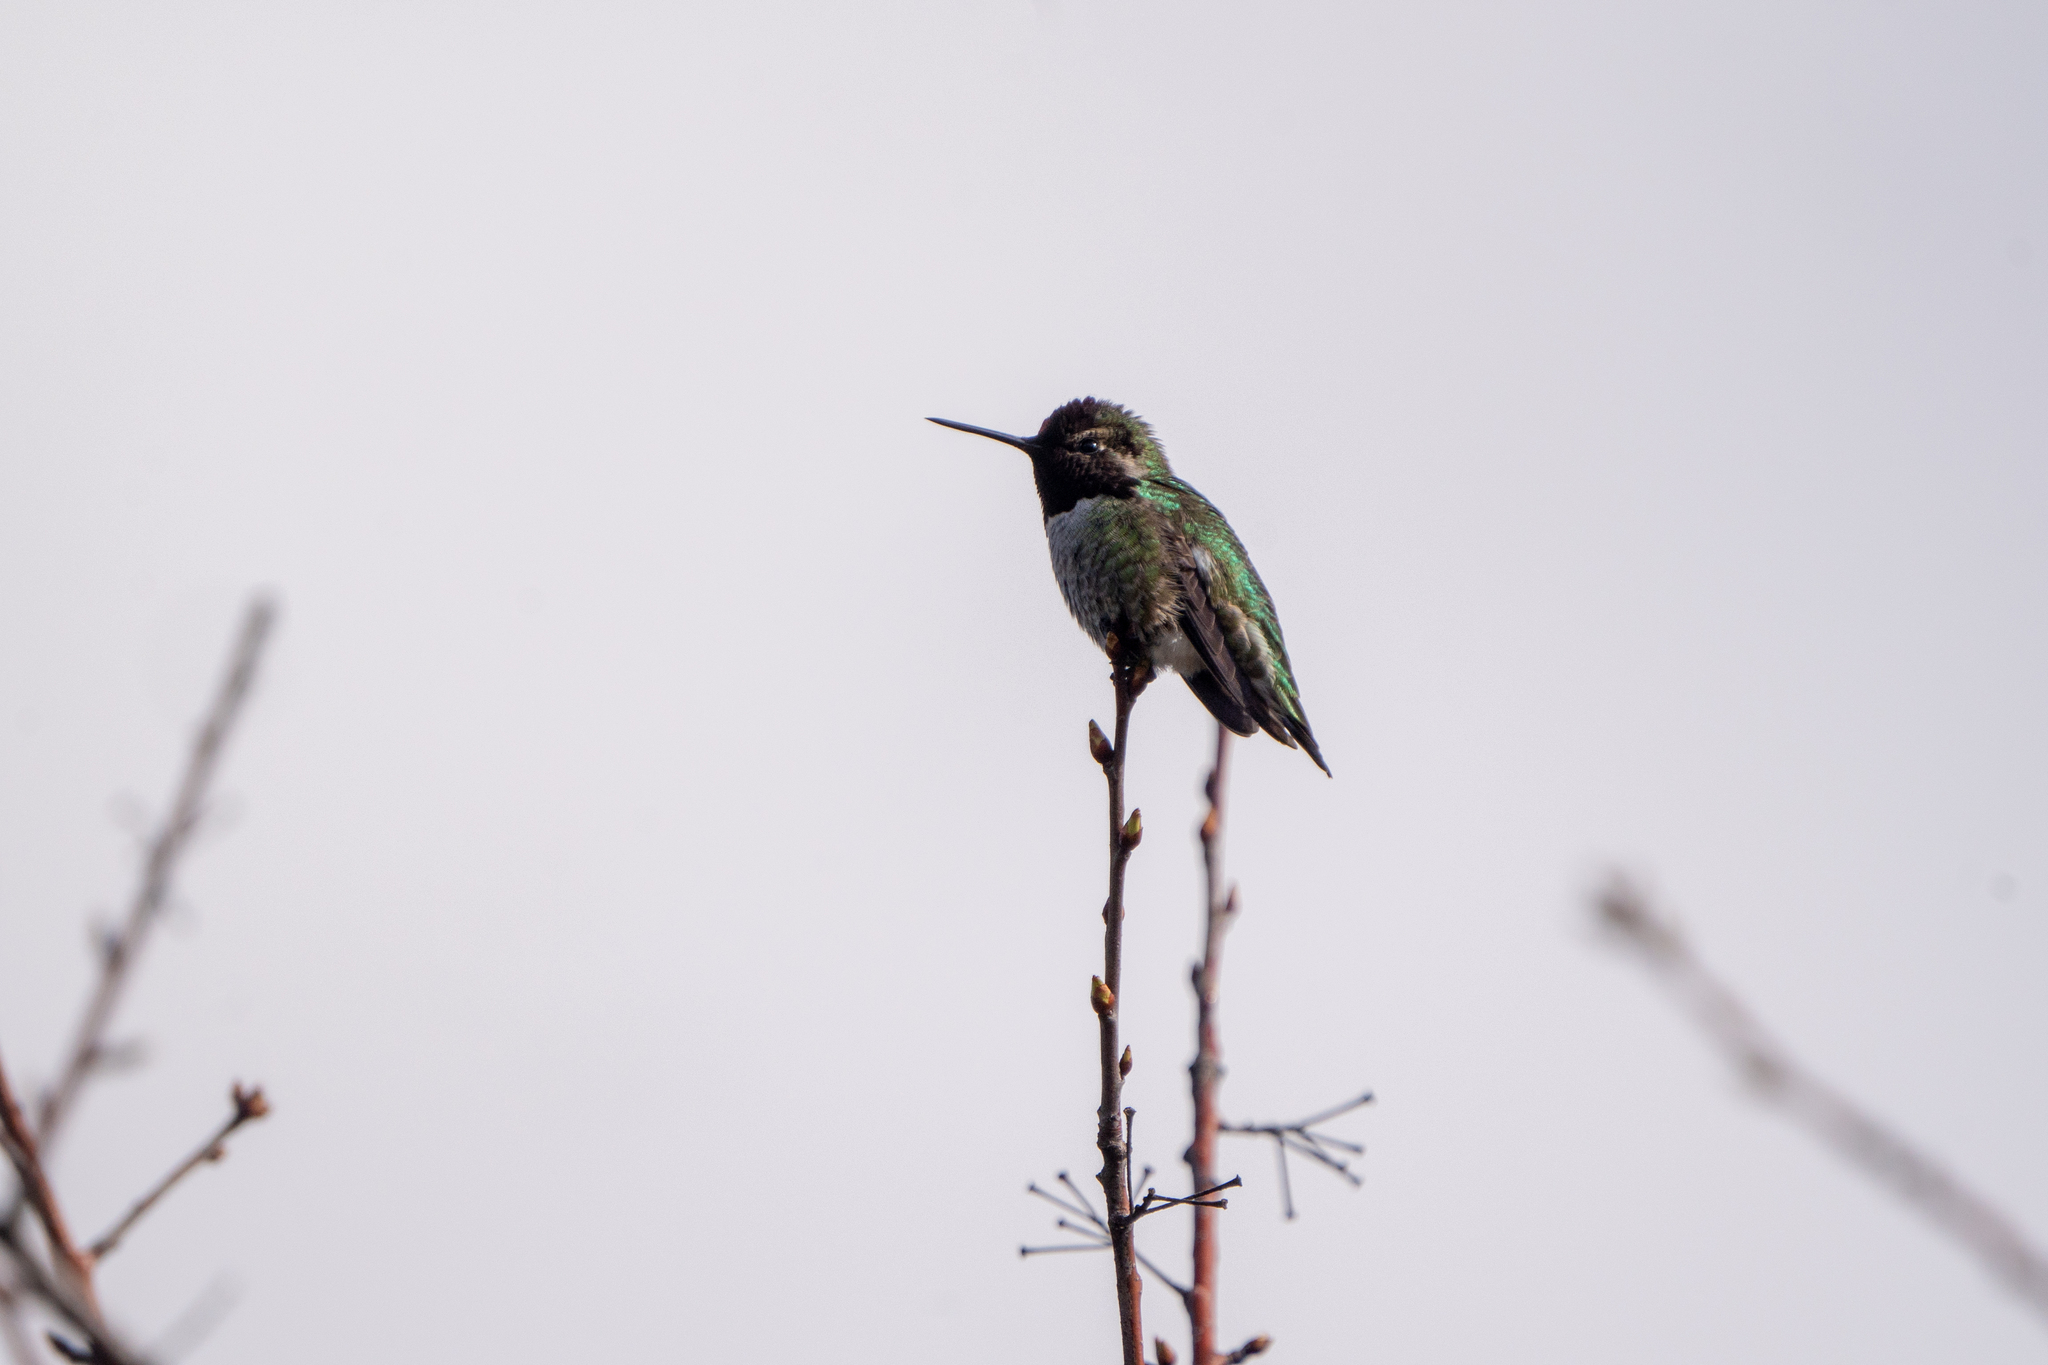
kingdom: Animalia
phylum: Chordata
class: Aves
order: Apodiformes
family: Trochilidae
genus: Calypte
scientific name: Calypte anna
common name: Anna's hummingbird
